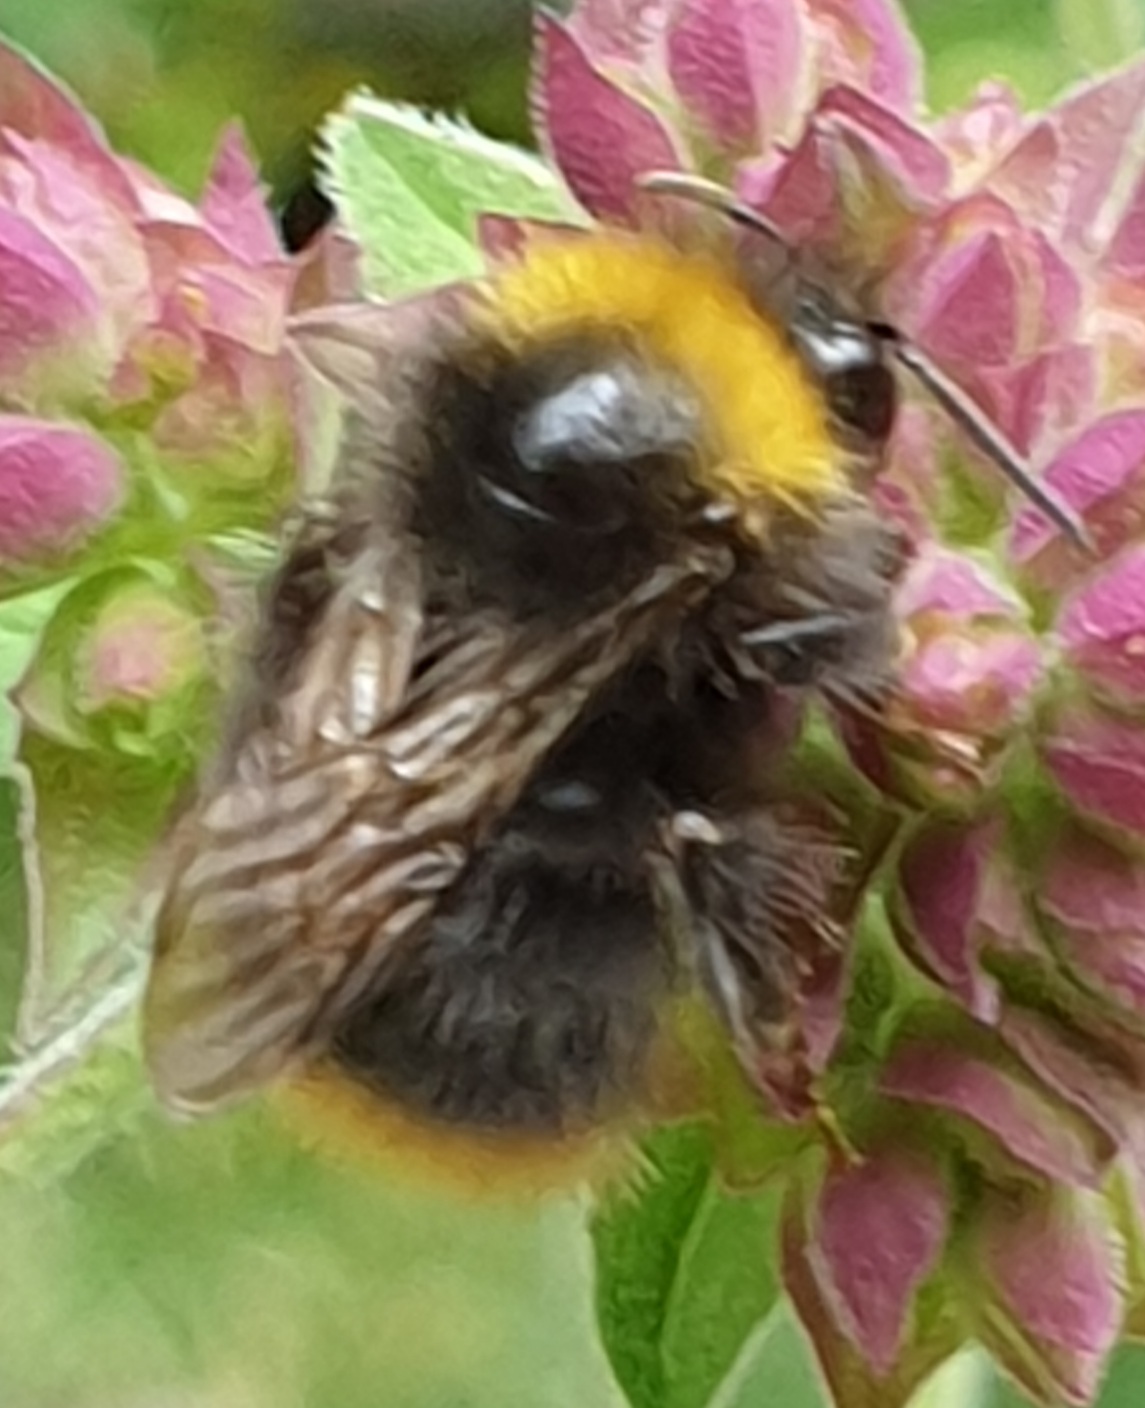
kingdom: Animalia
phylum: Arthropoda
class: Insecta
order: Hymenoptera
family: Apidae
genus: Bombus
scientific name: Bombus pratorum
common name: Early humble-bee
